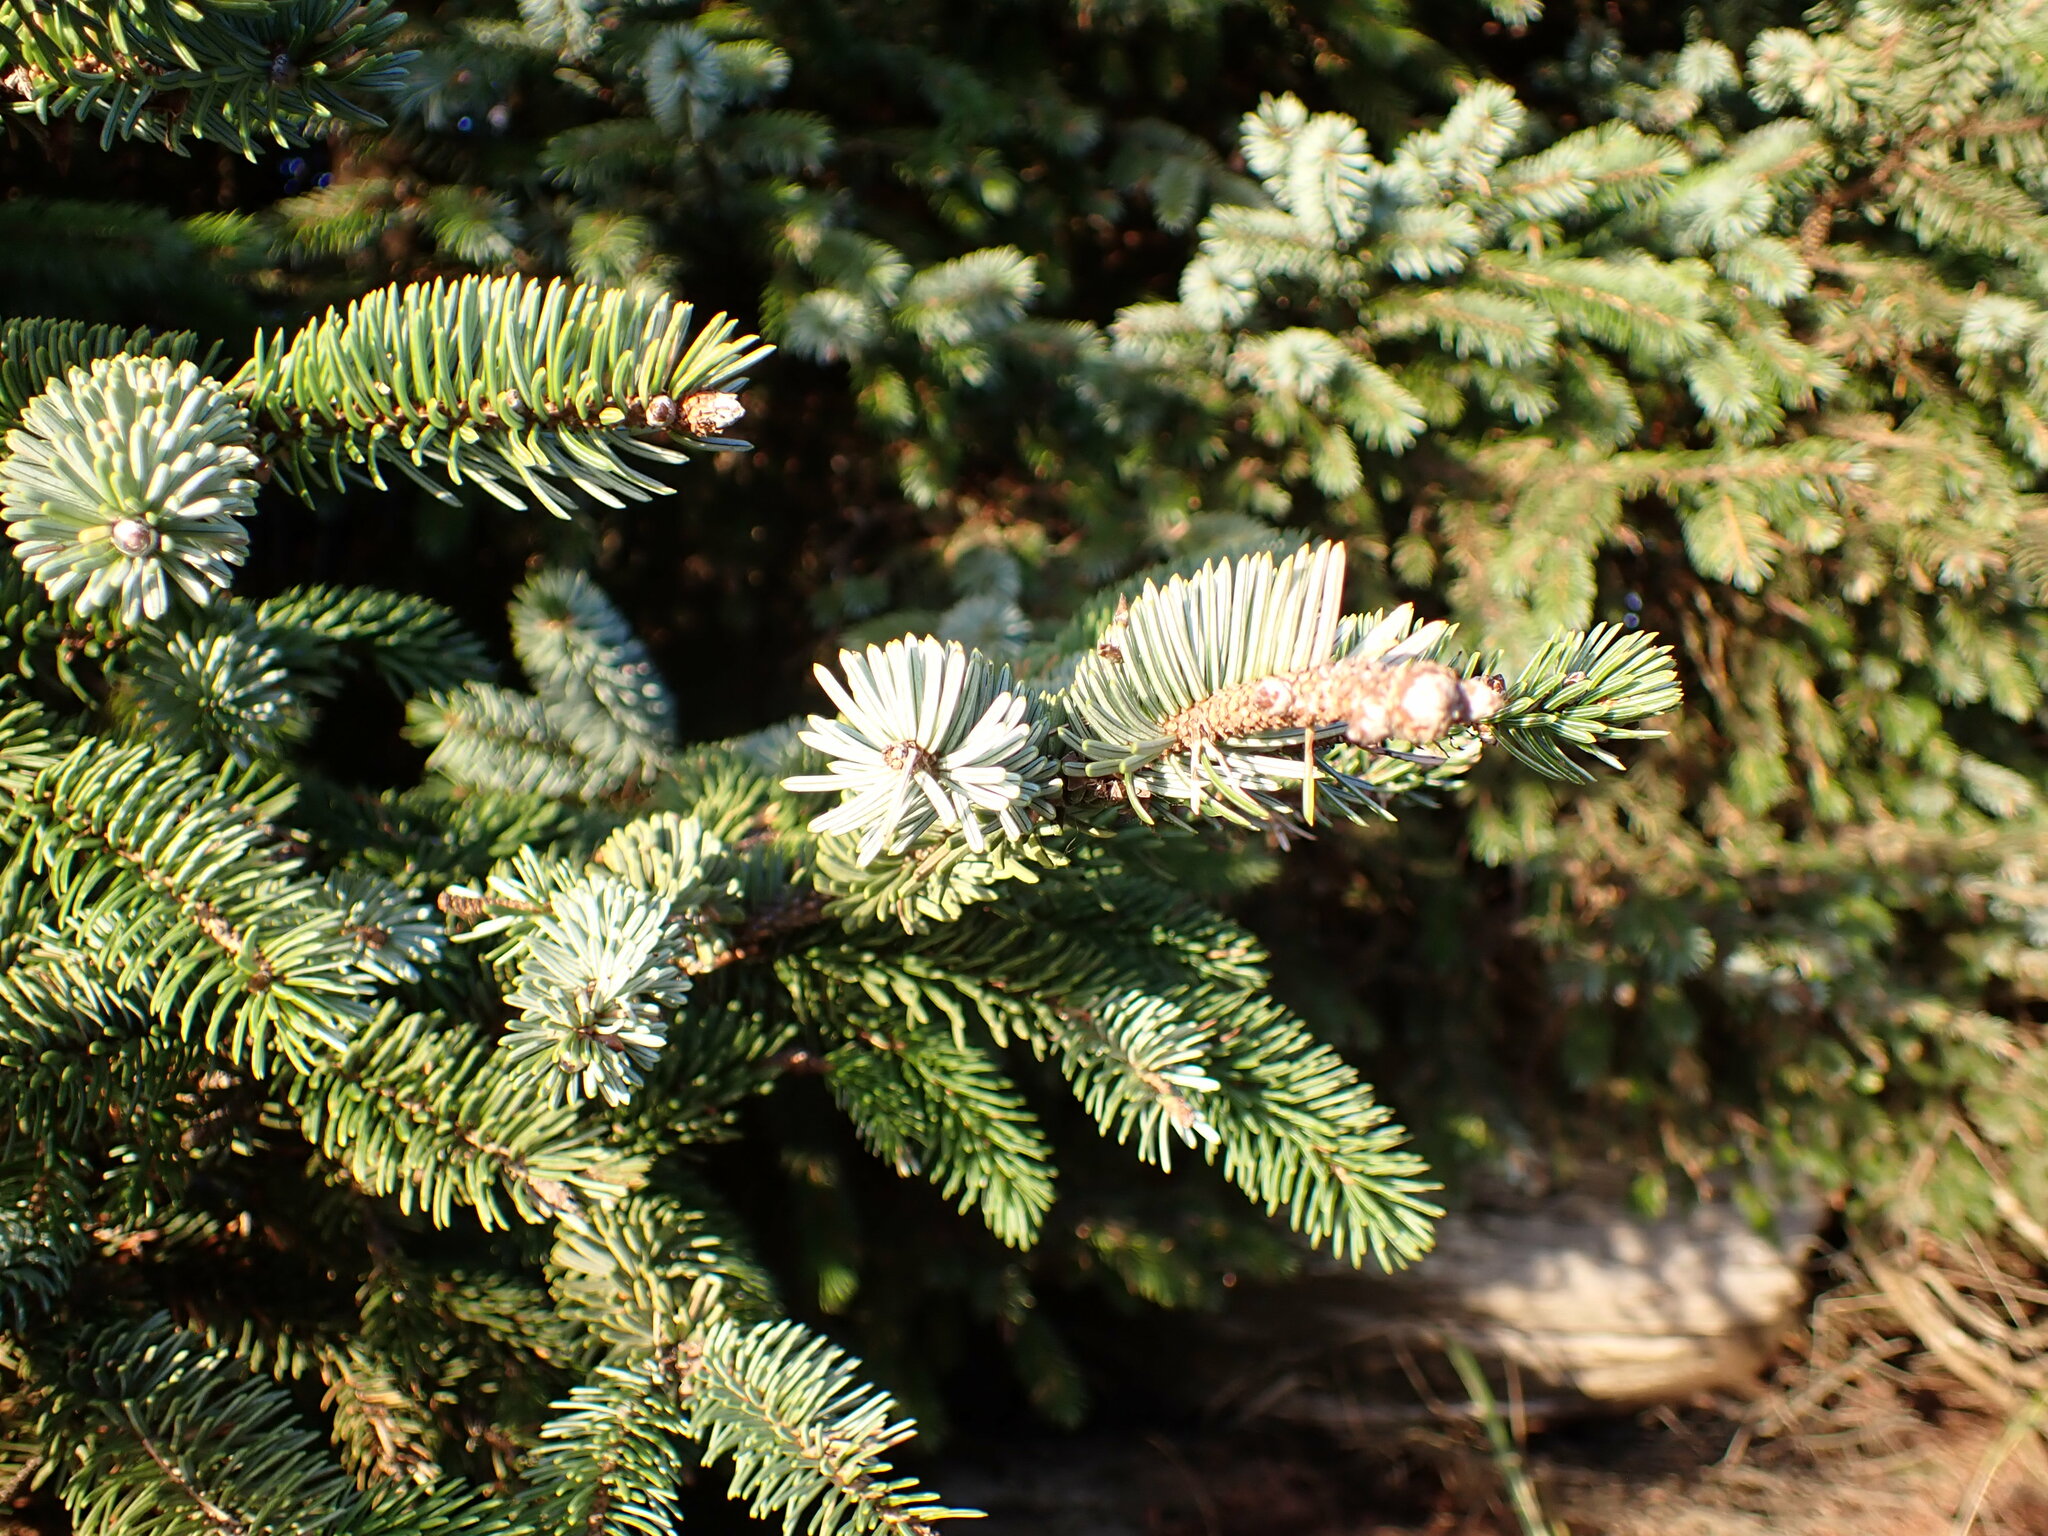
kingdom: Plantae
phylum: Tracheophyta
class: Pinopsida
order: Pinales
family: Pinaceae
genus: Picea
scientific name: Picea sitchensis
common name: Sitka spruce
